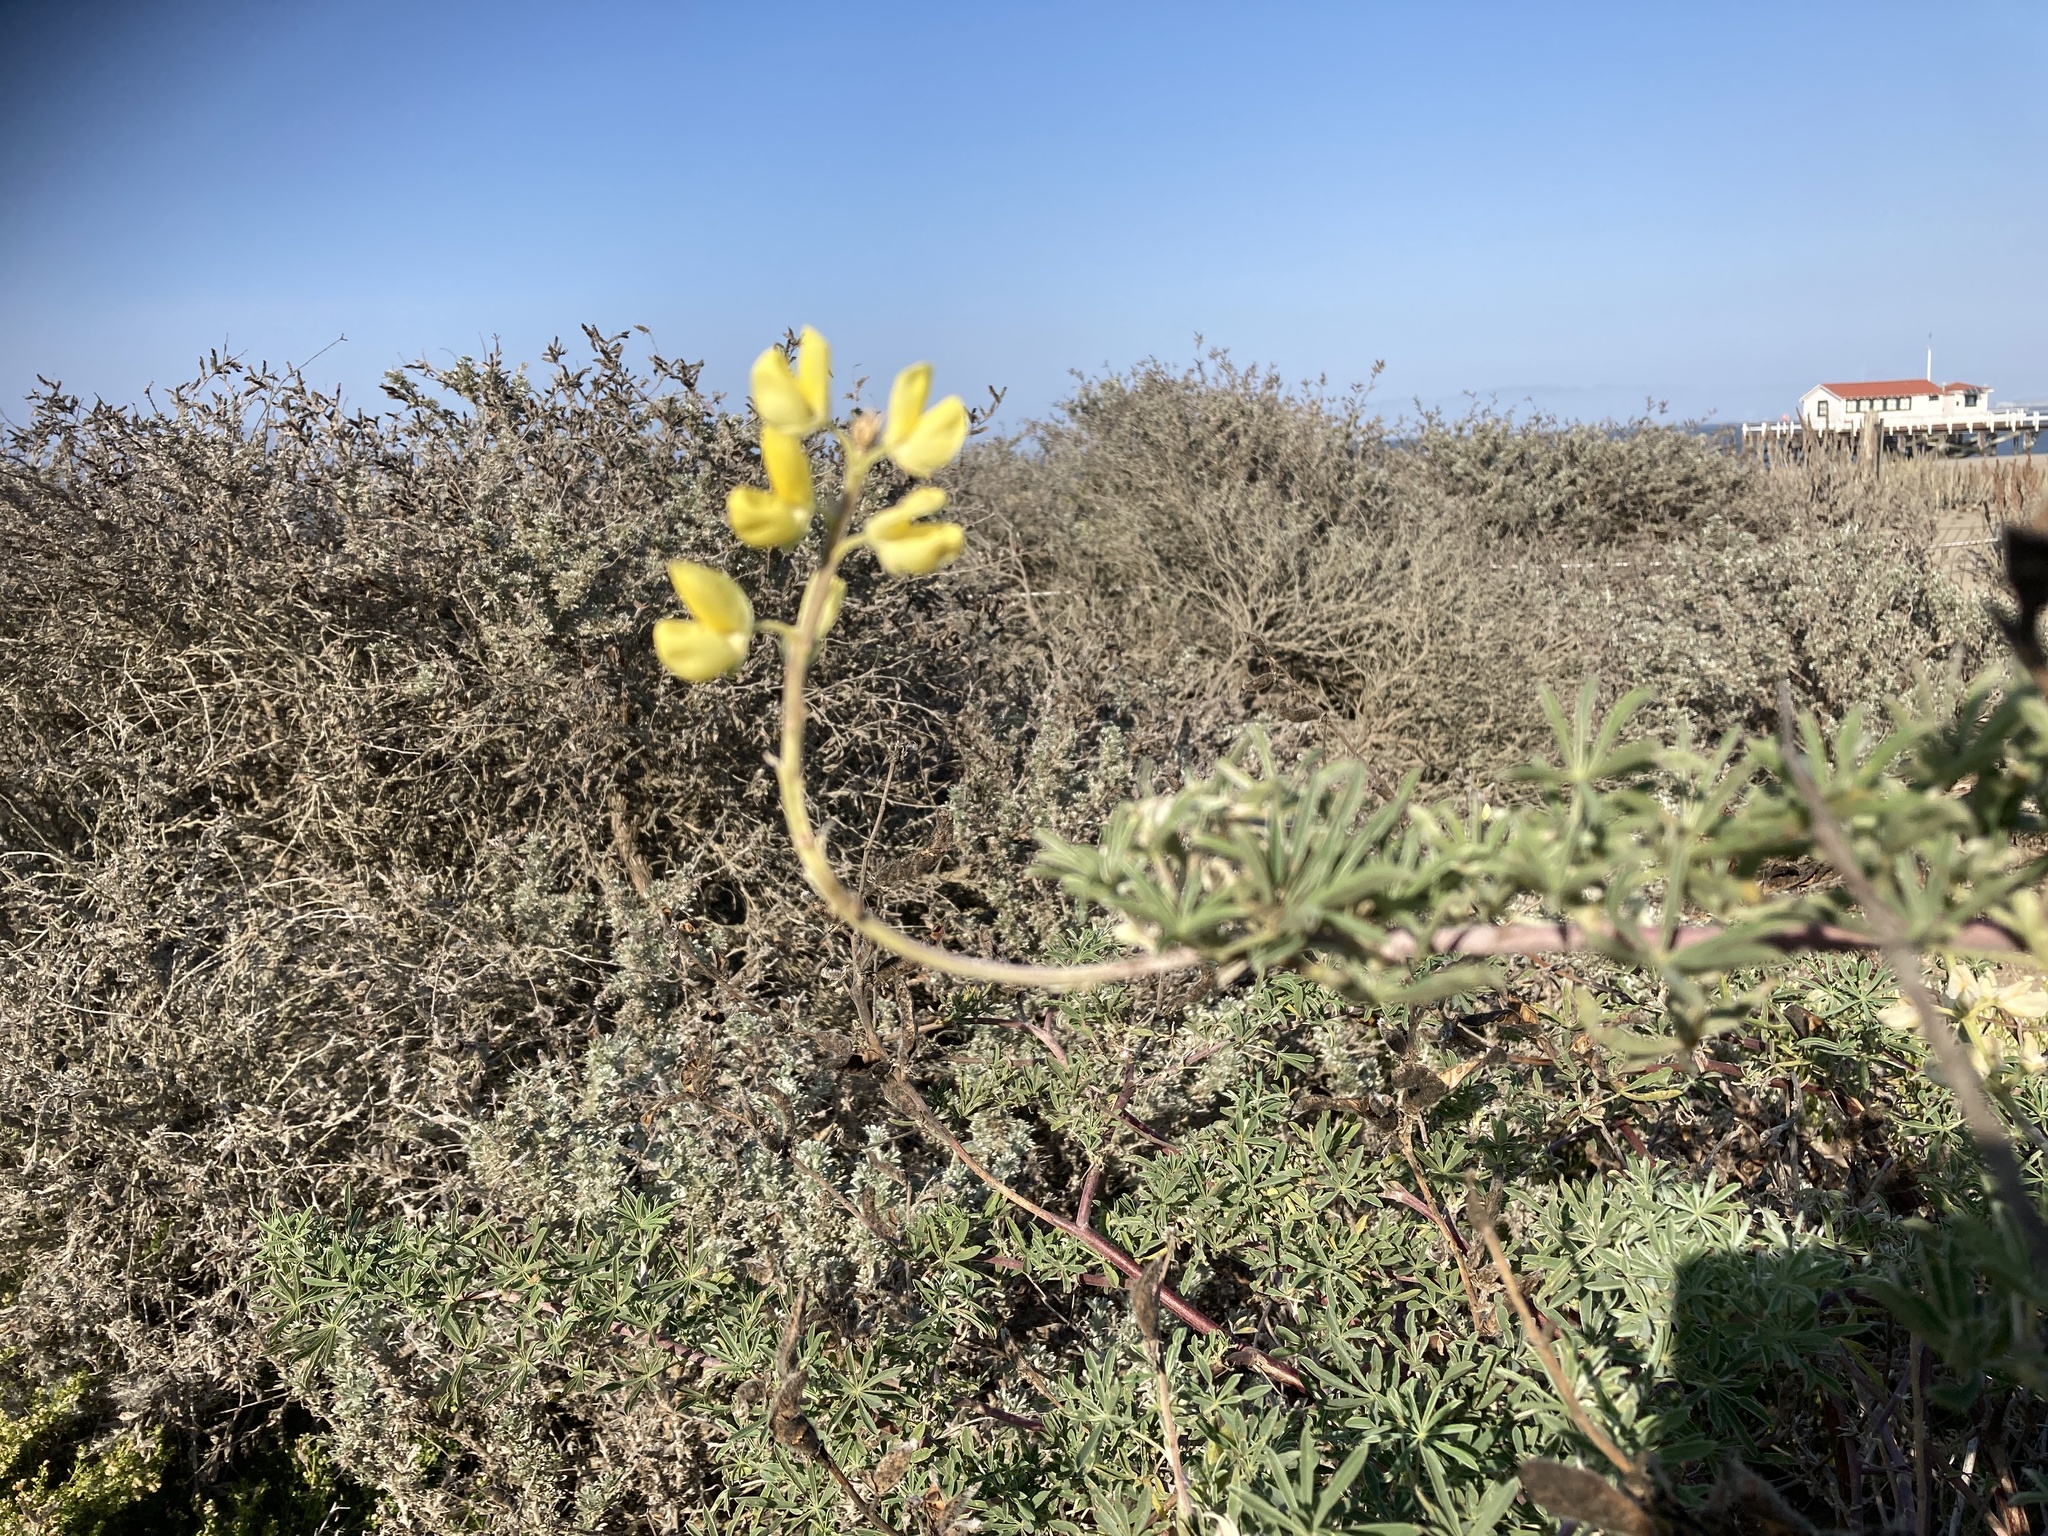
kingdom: Plantae
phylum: Tracheophyta
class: Magnoliopsida
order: Fabales
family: Fabaceae
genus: Lupinus
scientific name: Lupinus arboreus
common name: Yellow bush lupine
